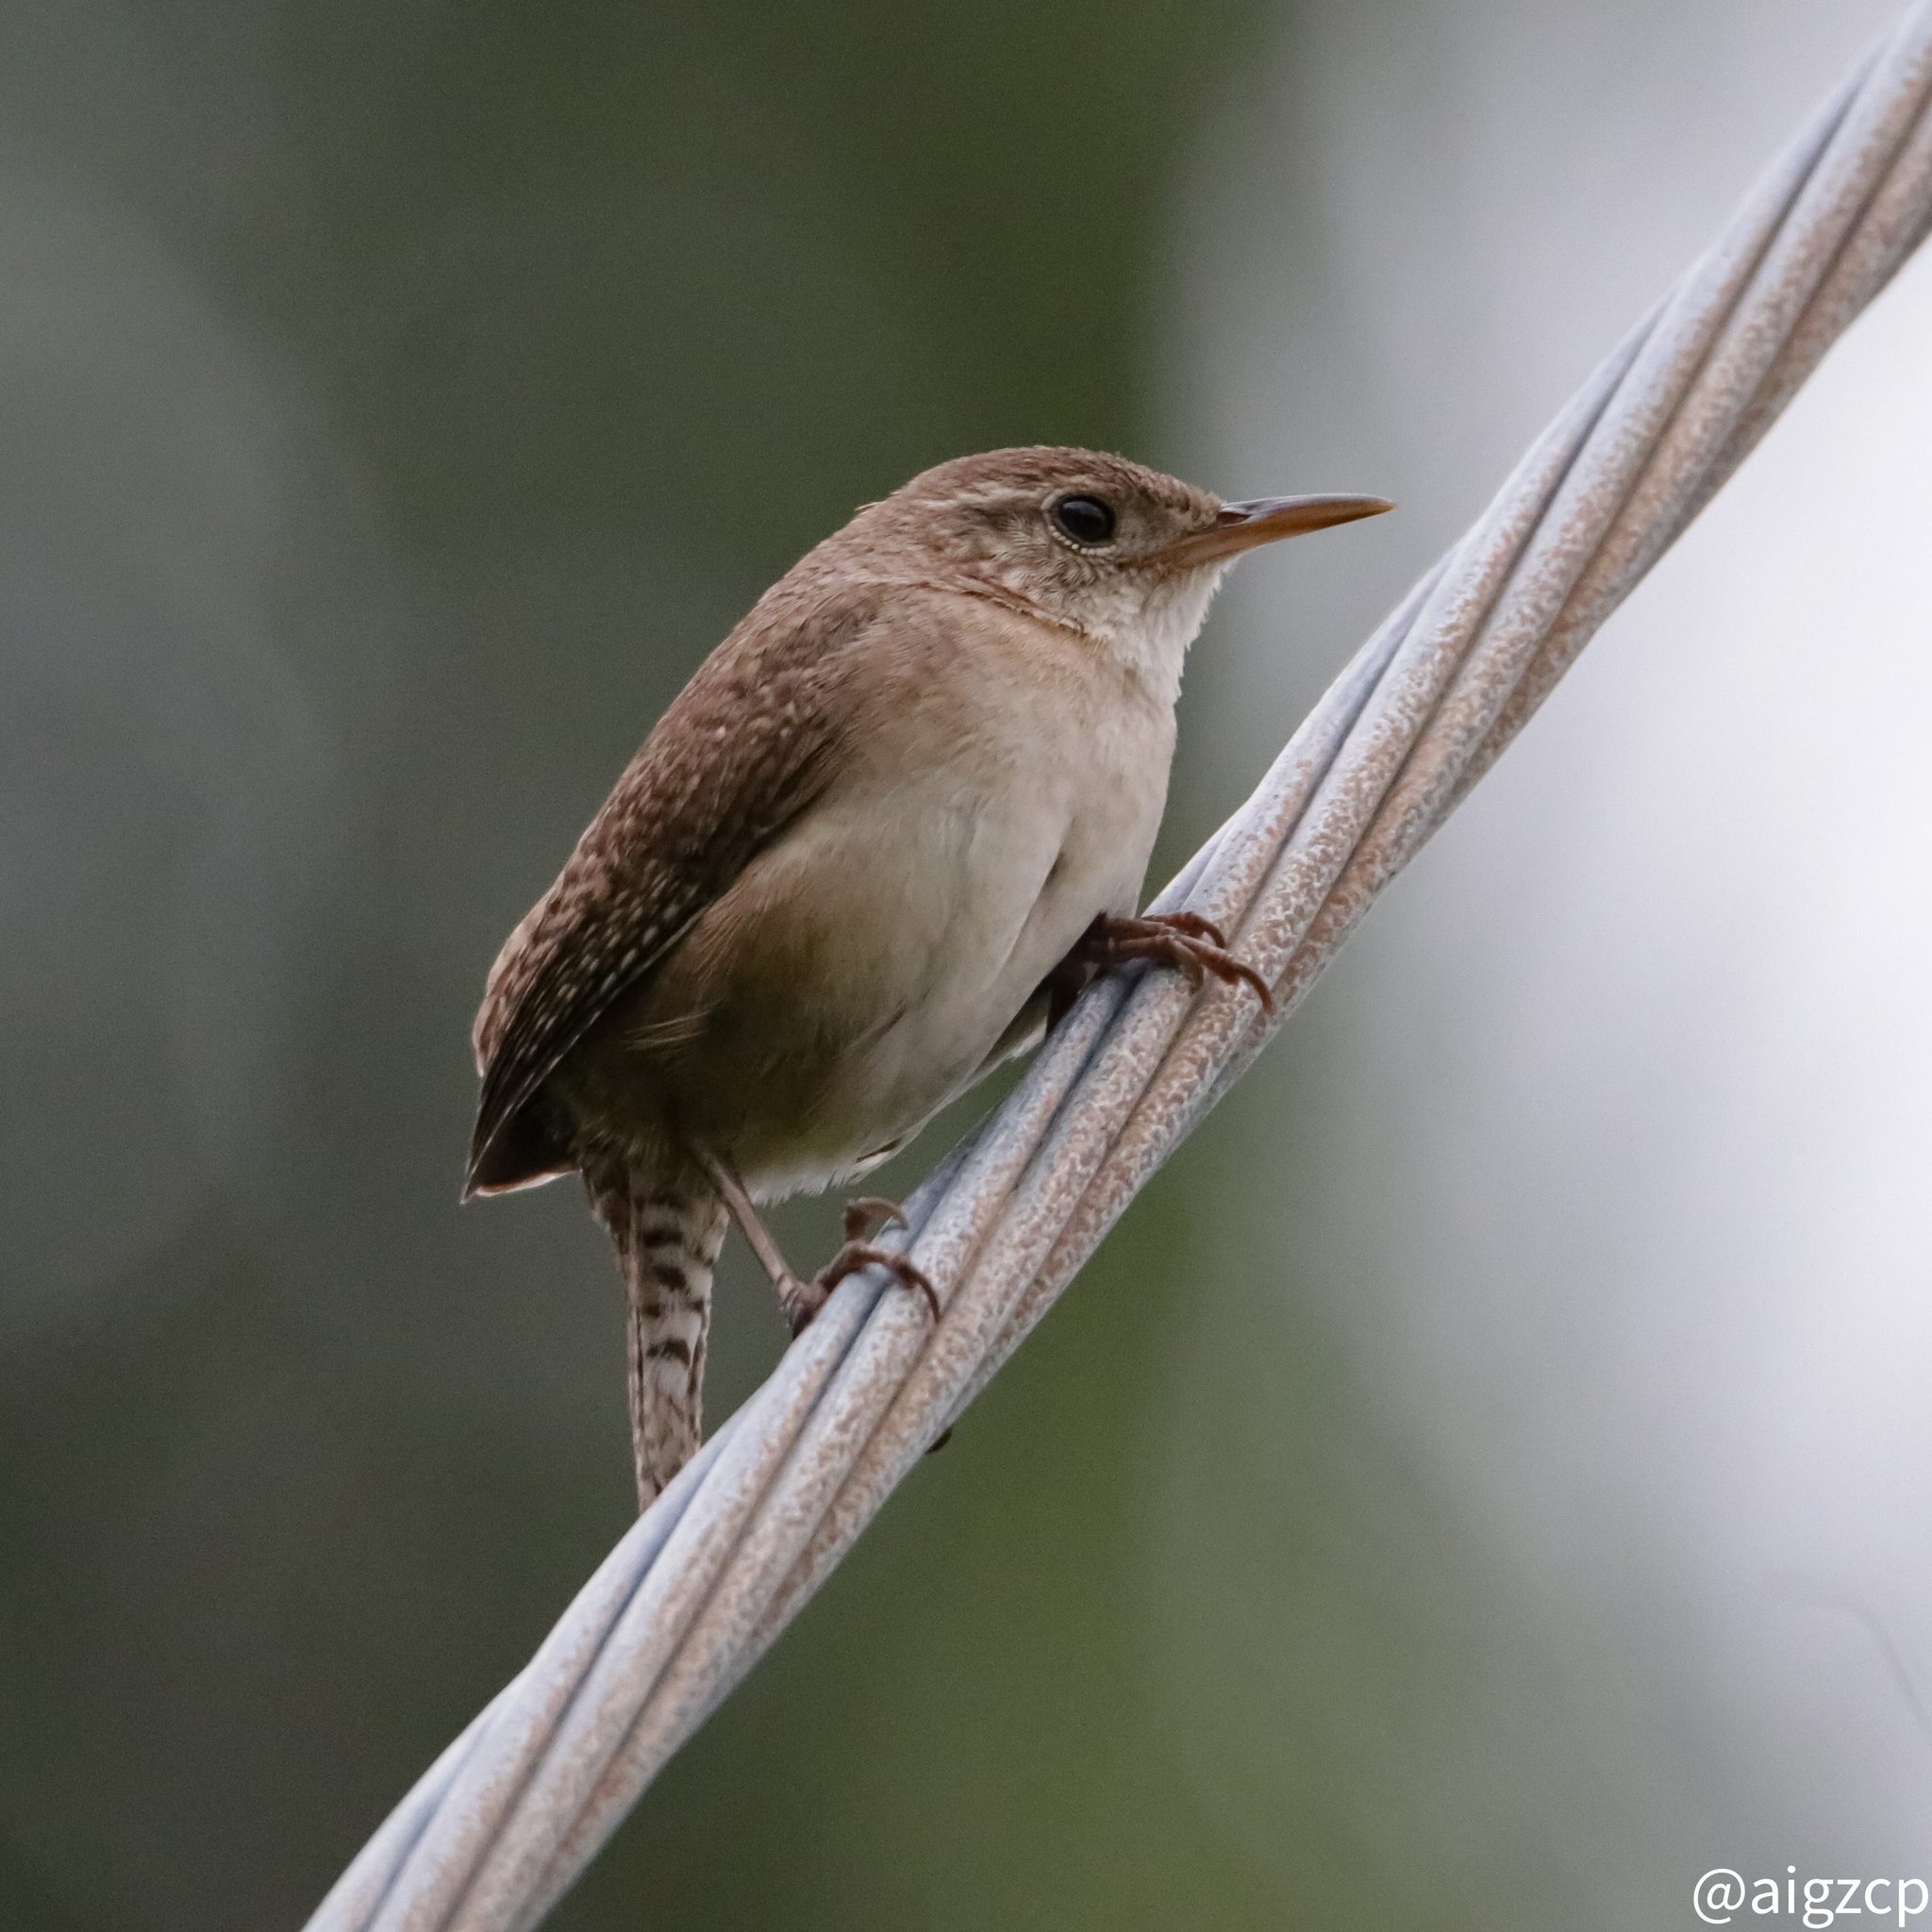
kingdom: Animalia
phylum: Chordata
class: Aves
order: Passeriformes
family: Troglodytidae
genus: Troglodytes
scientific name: Troglodytes aedon
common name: House wren
